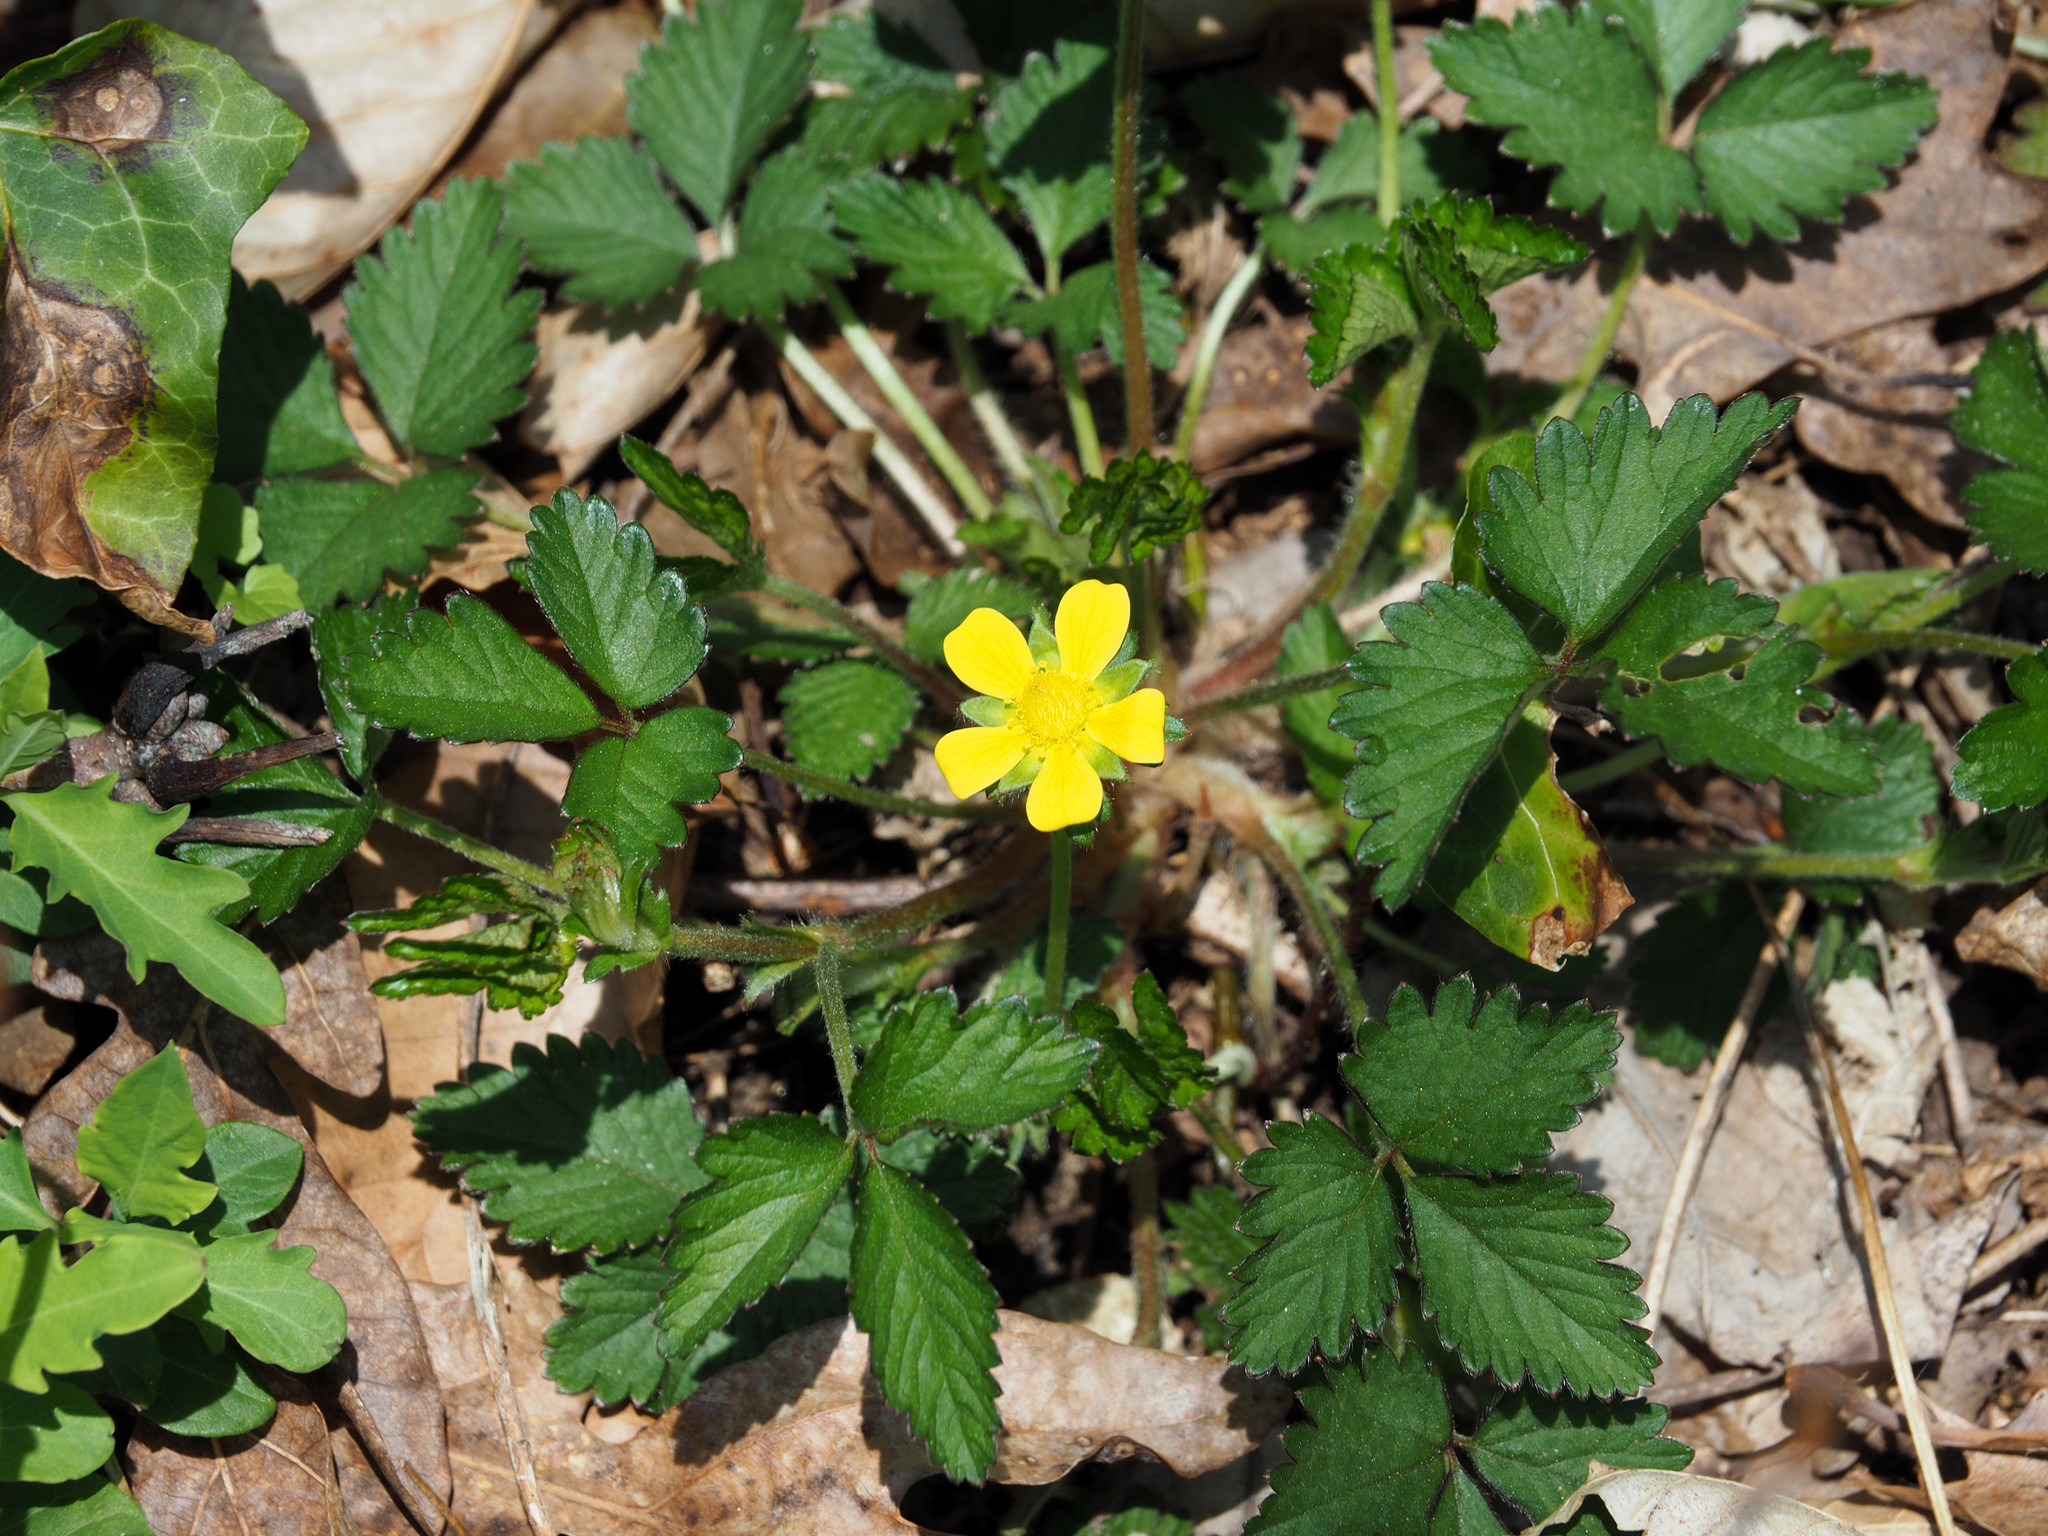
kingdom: Plantae
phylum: Tracheophyta
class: Magnoliopsida
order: Rosales
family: Rosaceae
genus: Potentilla
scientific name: Potentilla indica
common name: Yellow-flowered strawberry
